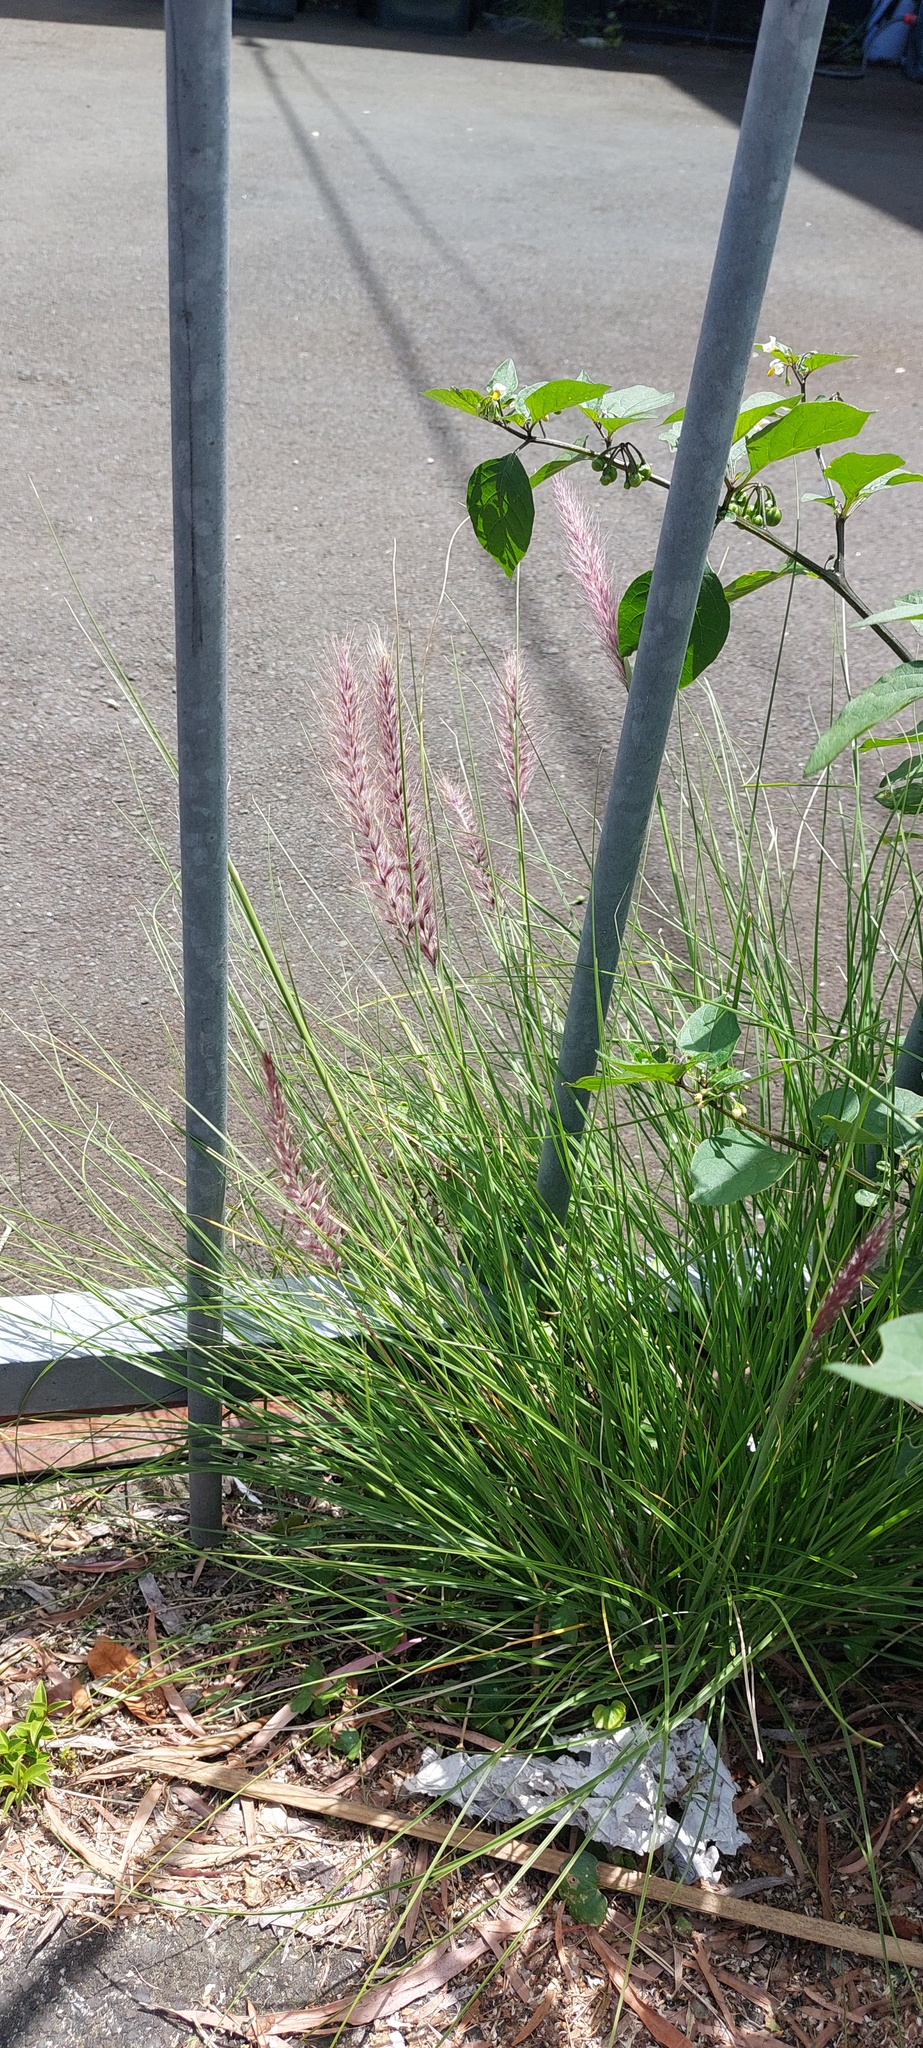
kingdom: Plantae
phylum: Tracheophyta
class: Liliopsida
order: Poales
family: Poaceae
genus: Cenchrus
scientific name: Cenchrus setaceus
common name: Crimson fountaingrass
